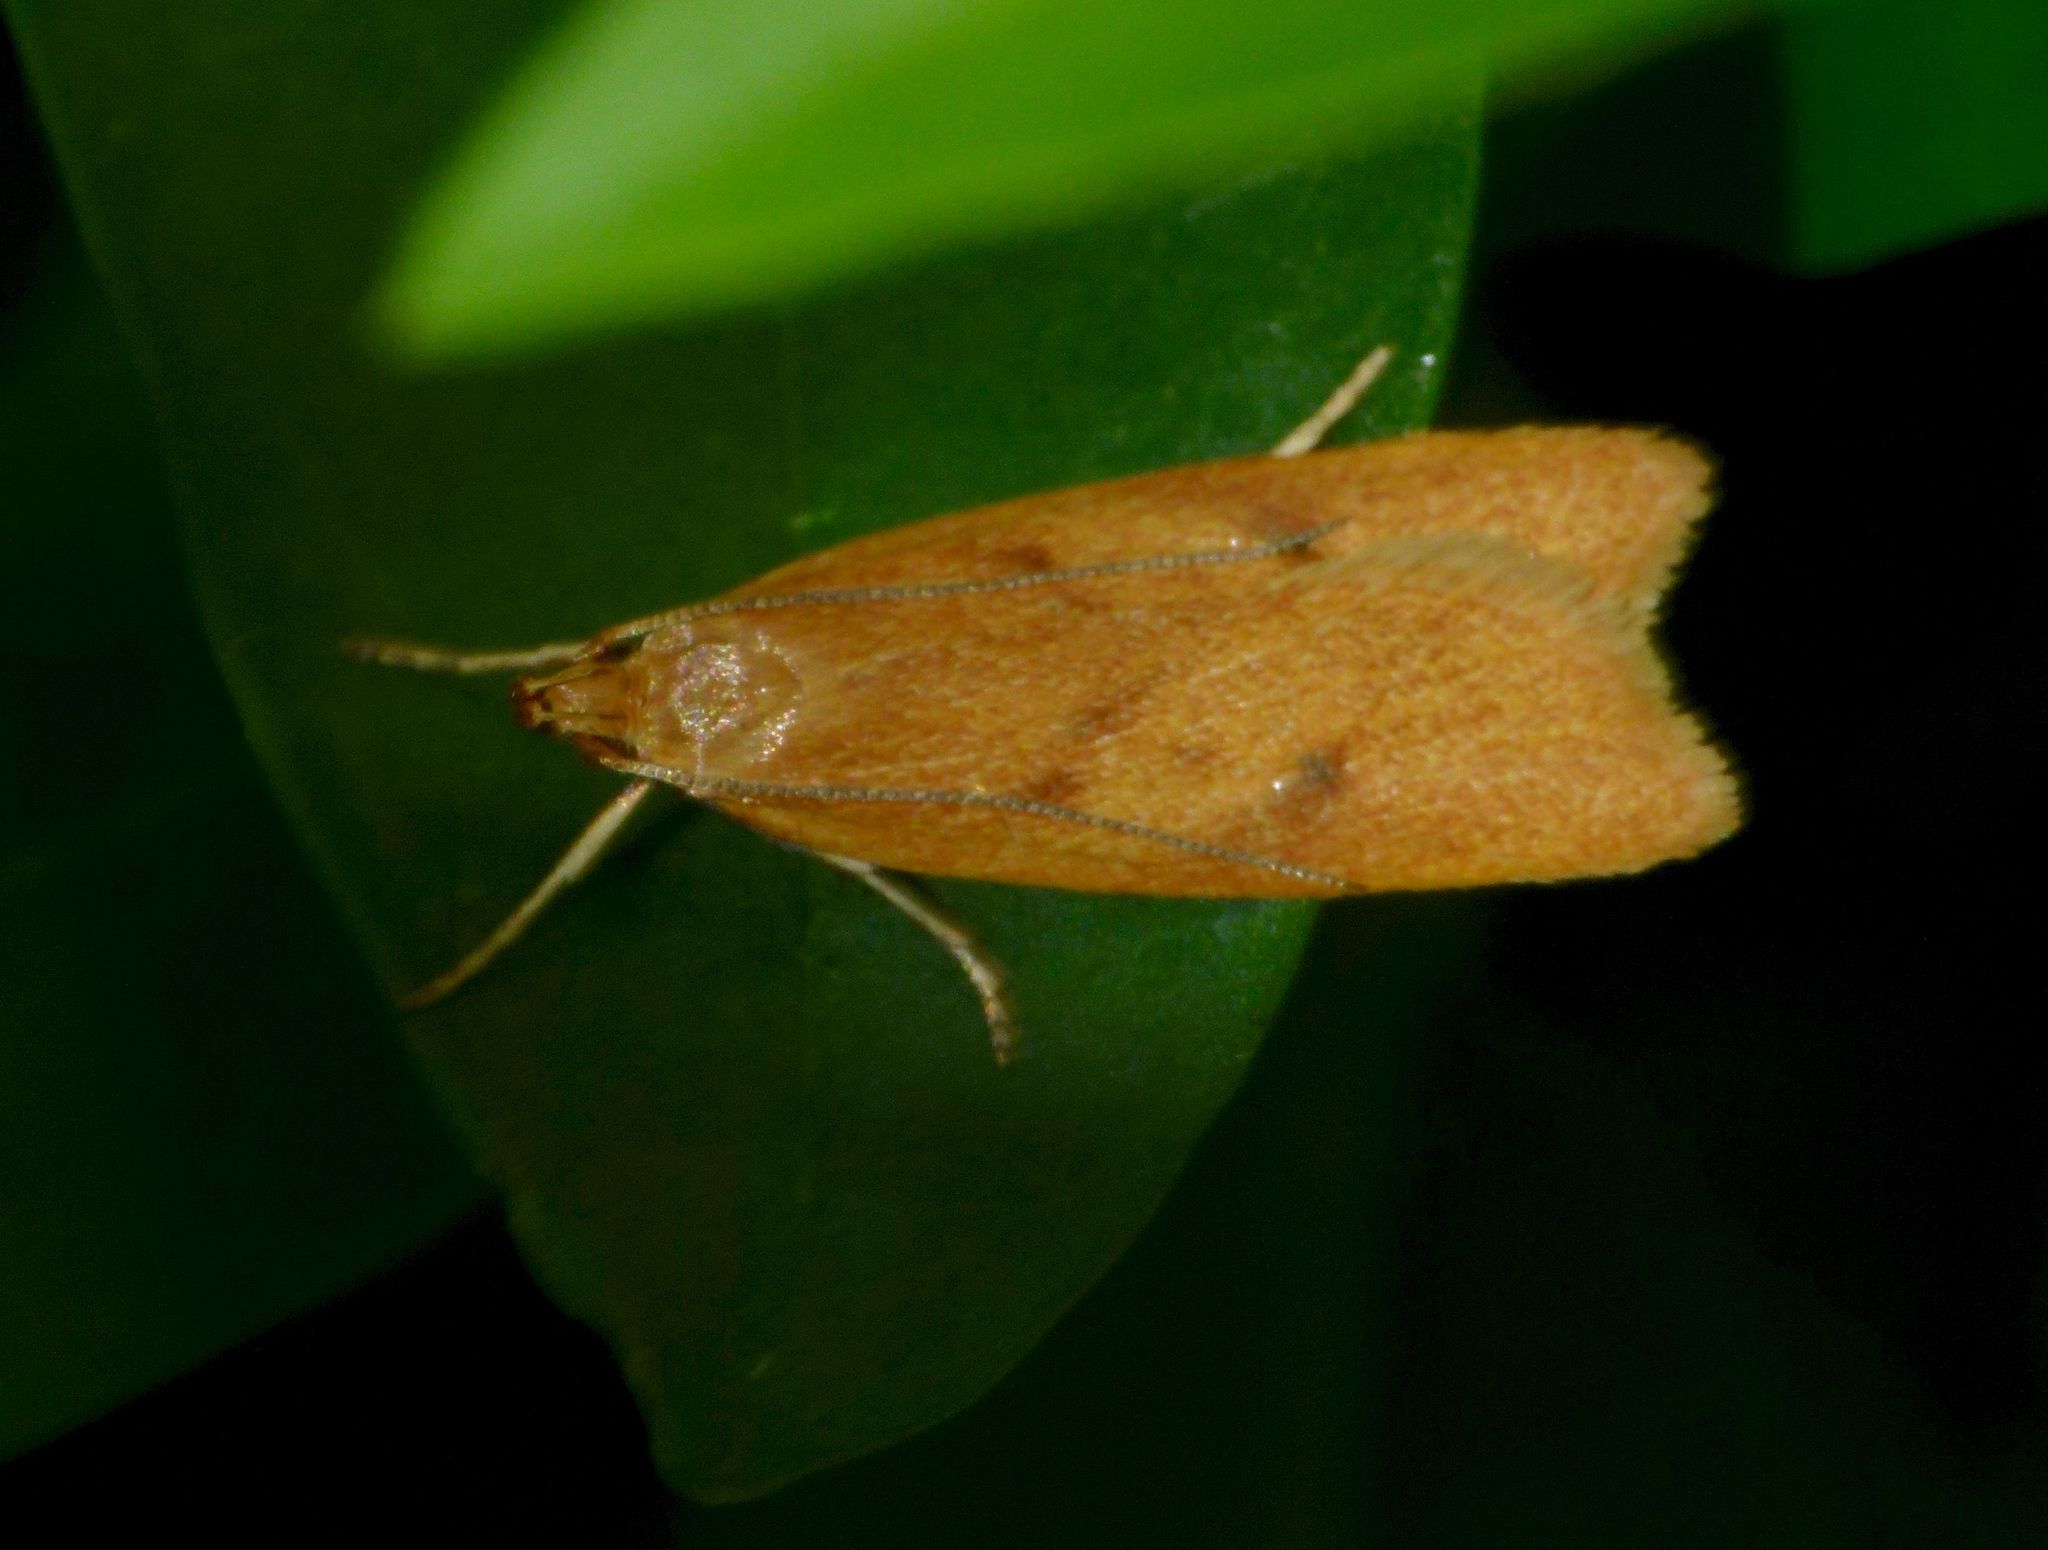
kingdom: Animalia
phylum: Arthropoda
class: Insecta
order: Lepidoptera
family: Oecophoridae
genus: Gymnobathra
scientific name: Gymnobathra sarcoxantha
